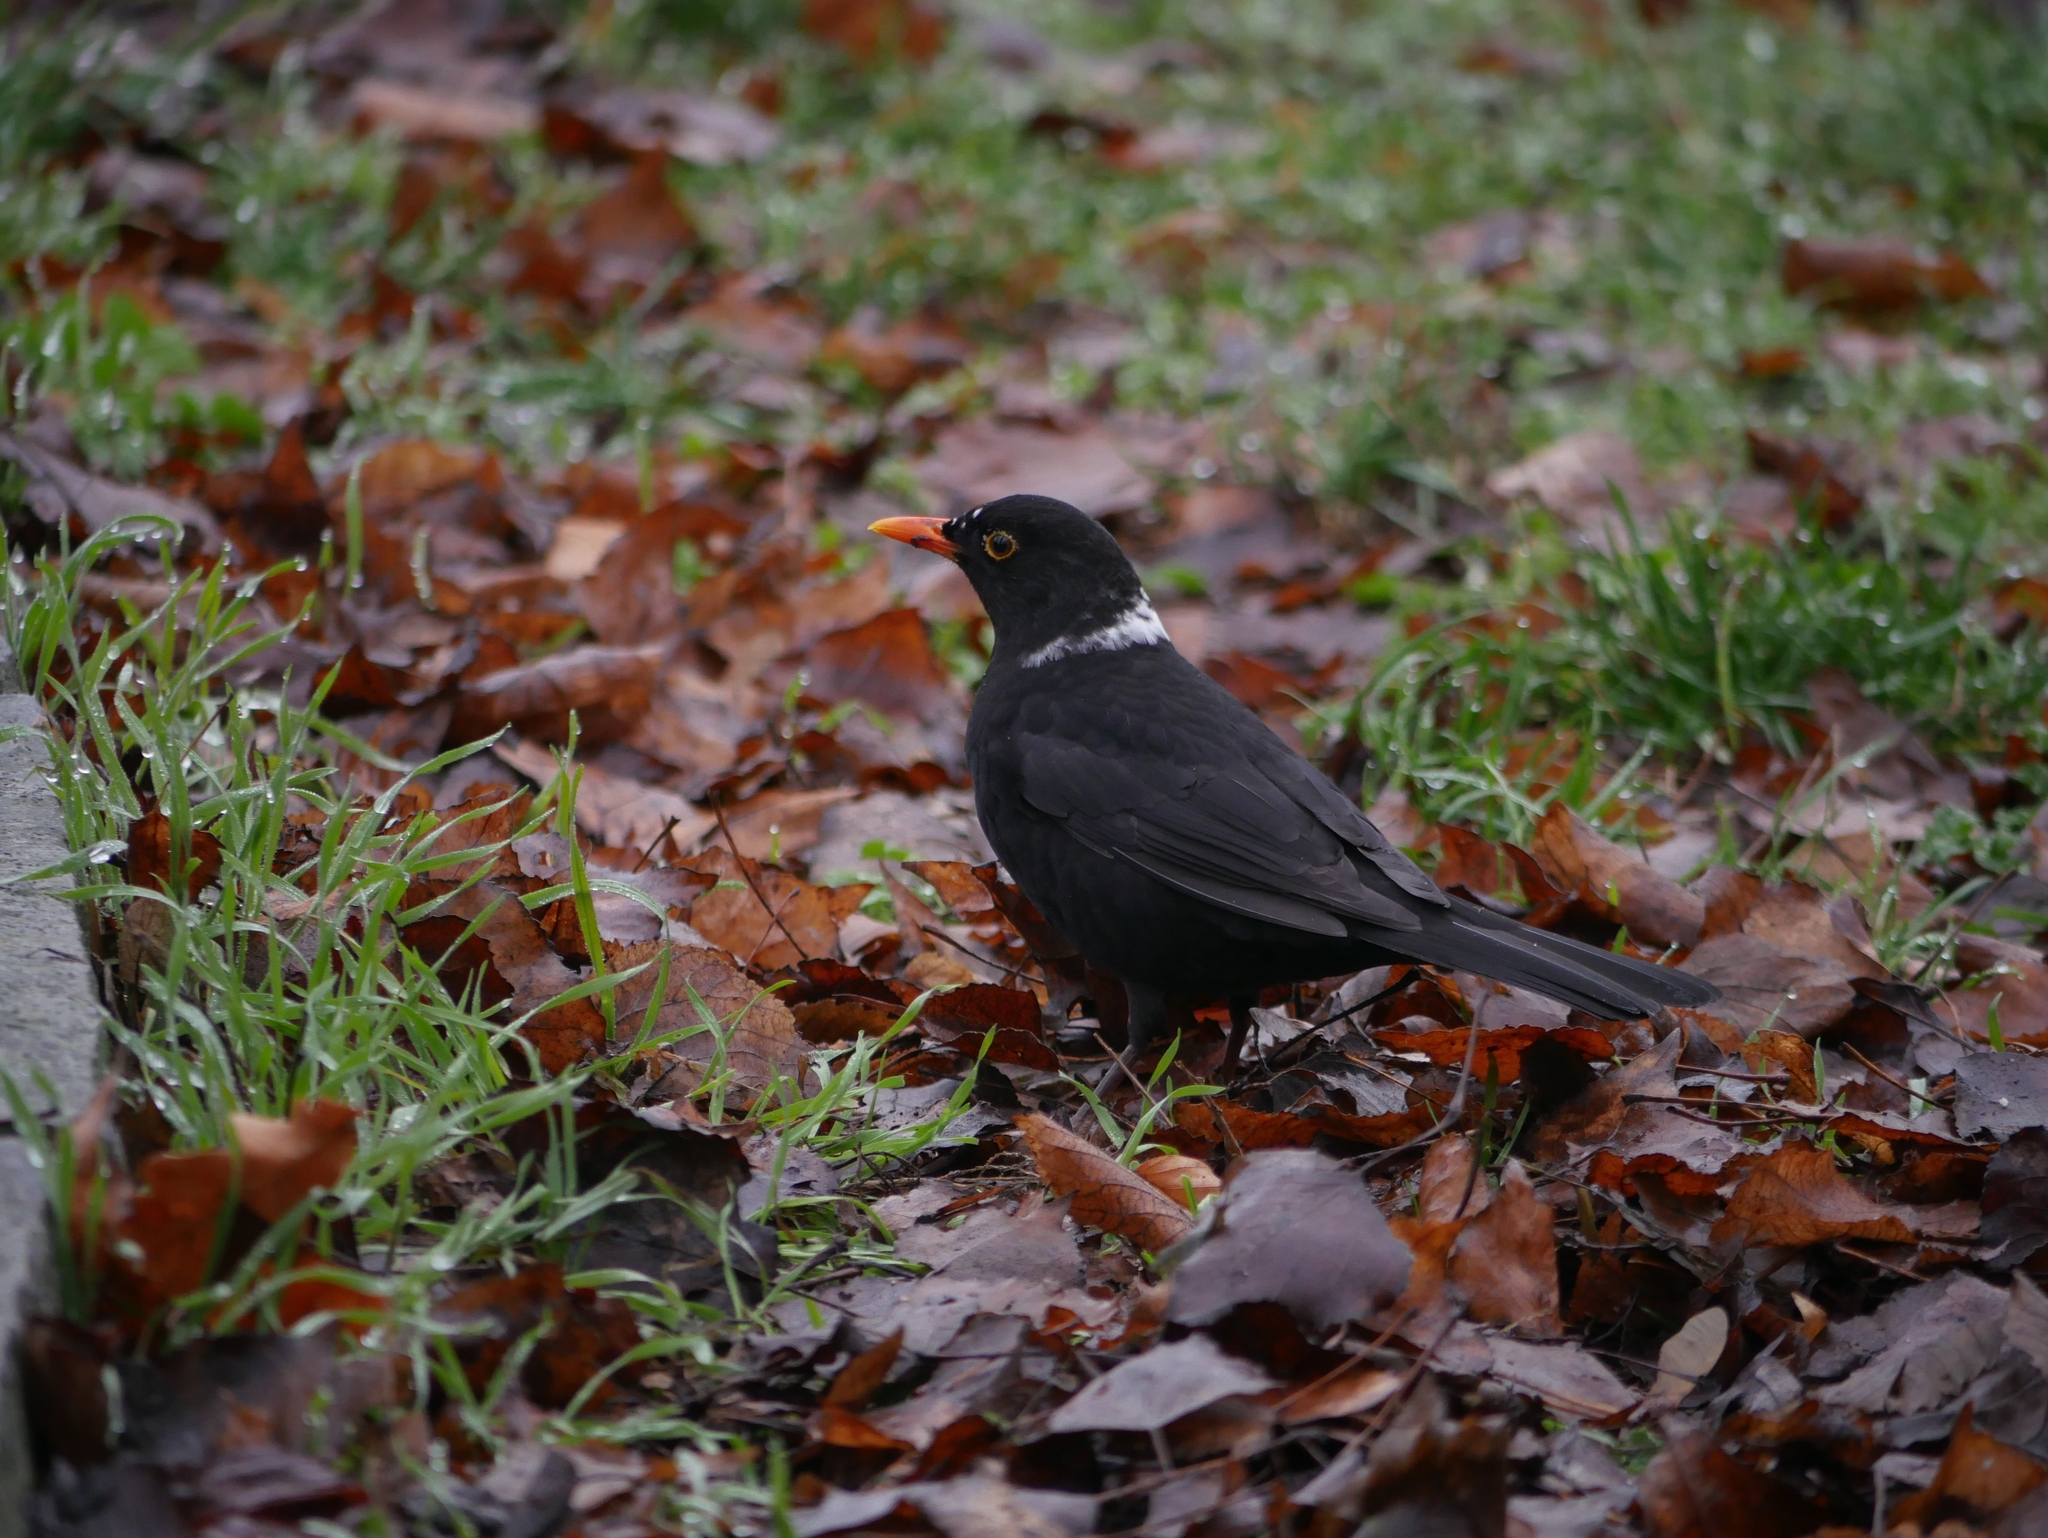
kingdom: Animalia
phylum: Chordata
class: Aves
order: Passeriformes
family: Turdidae
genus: Turdus
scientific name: Turdus merula
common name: Common blackbird
